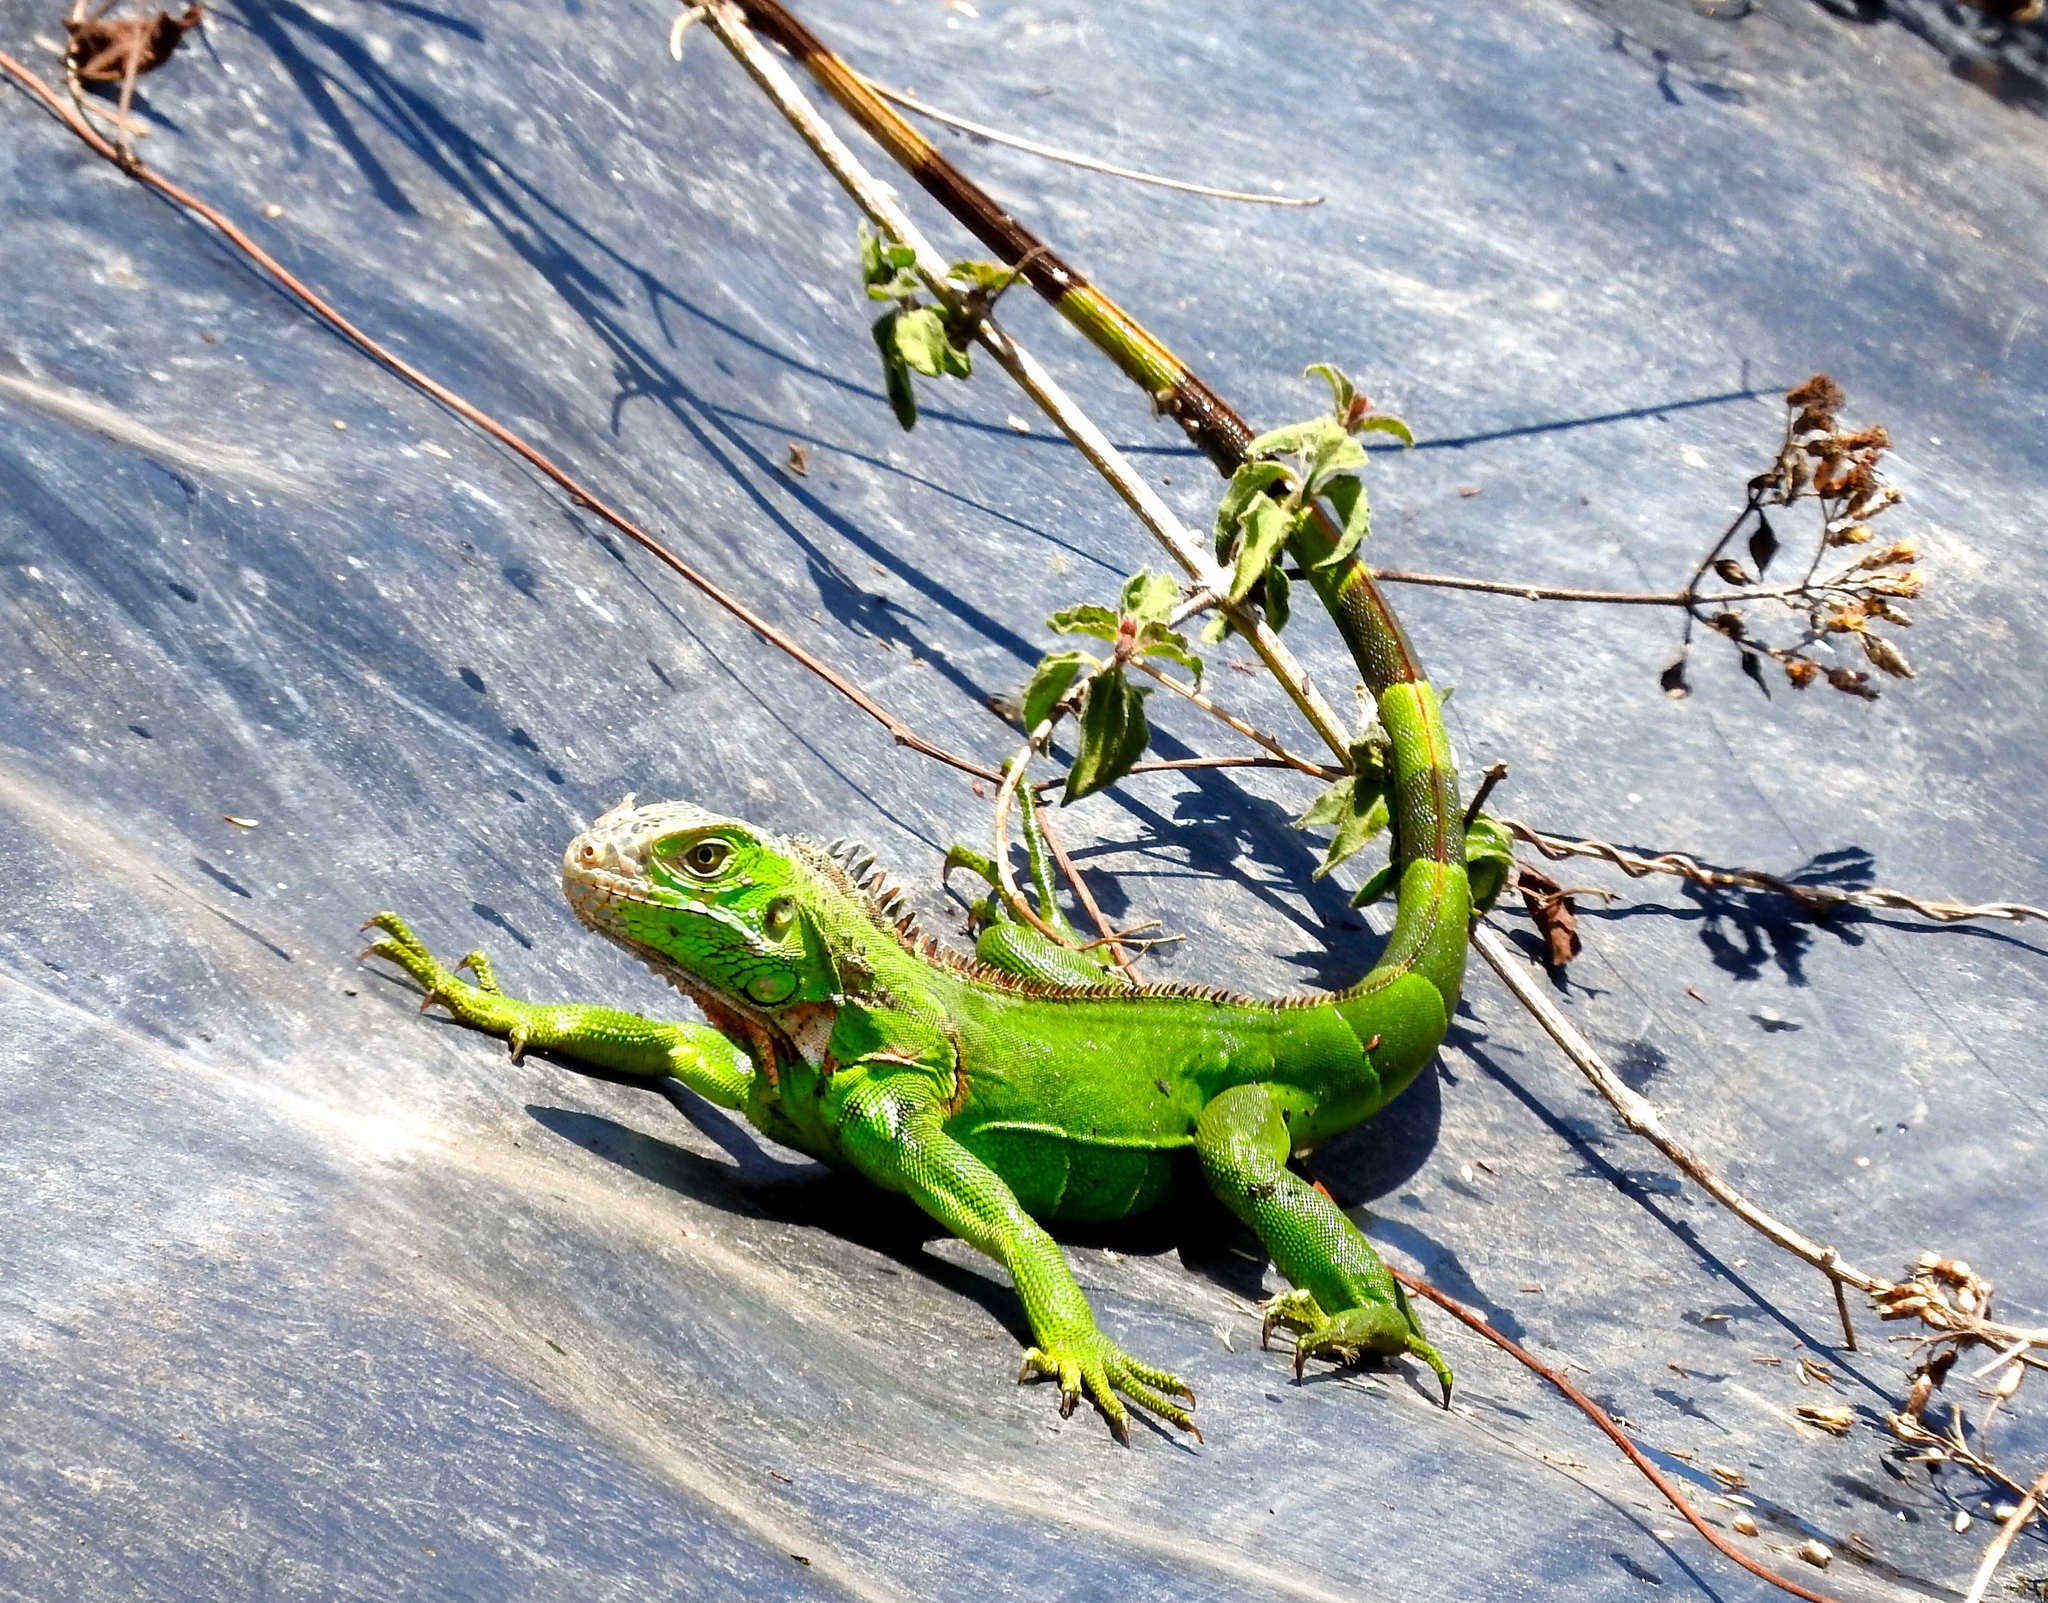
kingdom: Animalia
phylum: Chordata
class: Squamata
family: Iguanidae
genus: Iguana
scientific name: Iguana iguana
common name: Green iguana
